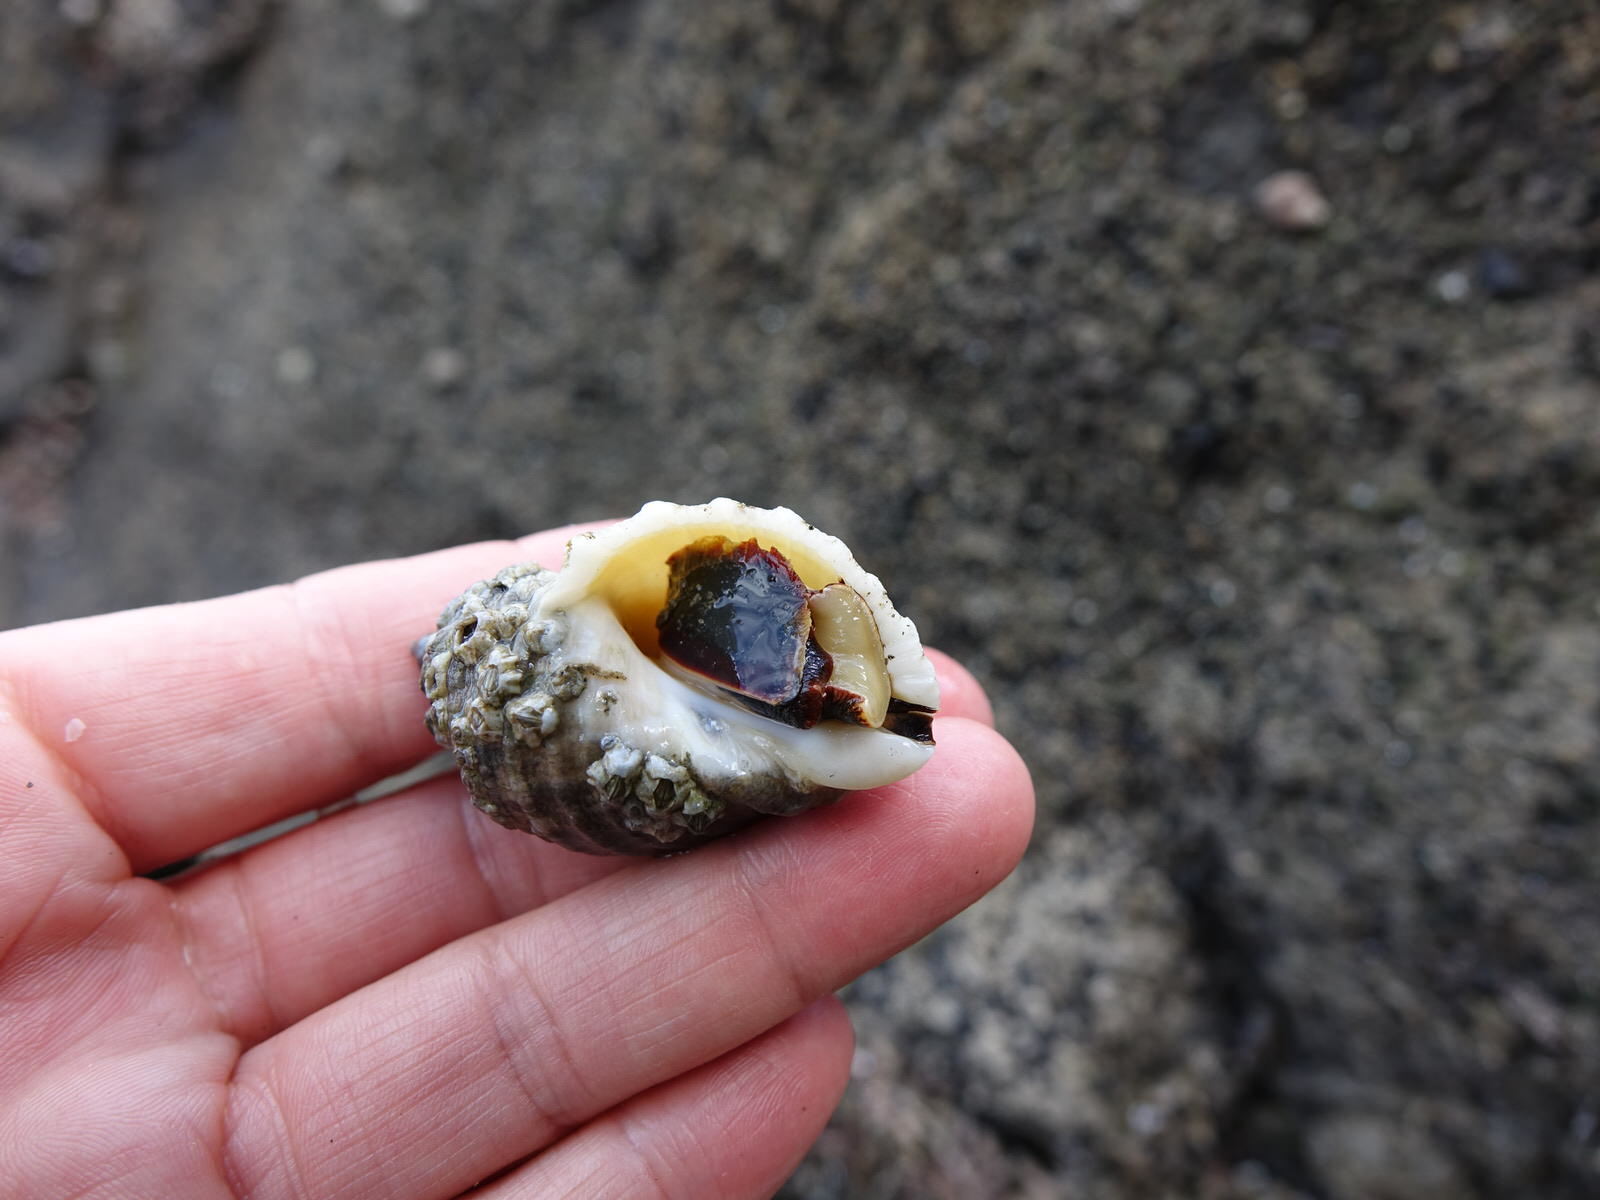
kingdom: Animalia
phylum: Mollusca
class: Gastropoda
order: Neogastropoda
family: Muricidae
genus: Dicathais
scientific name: Dicathais orbita
